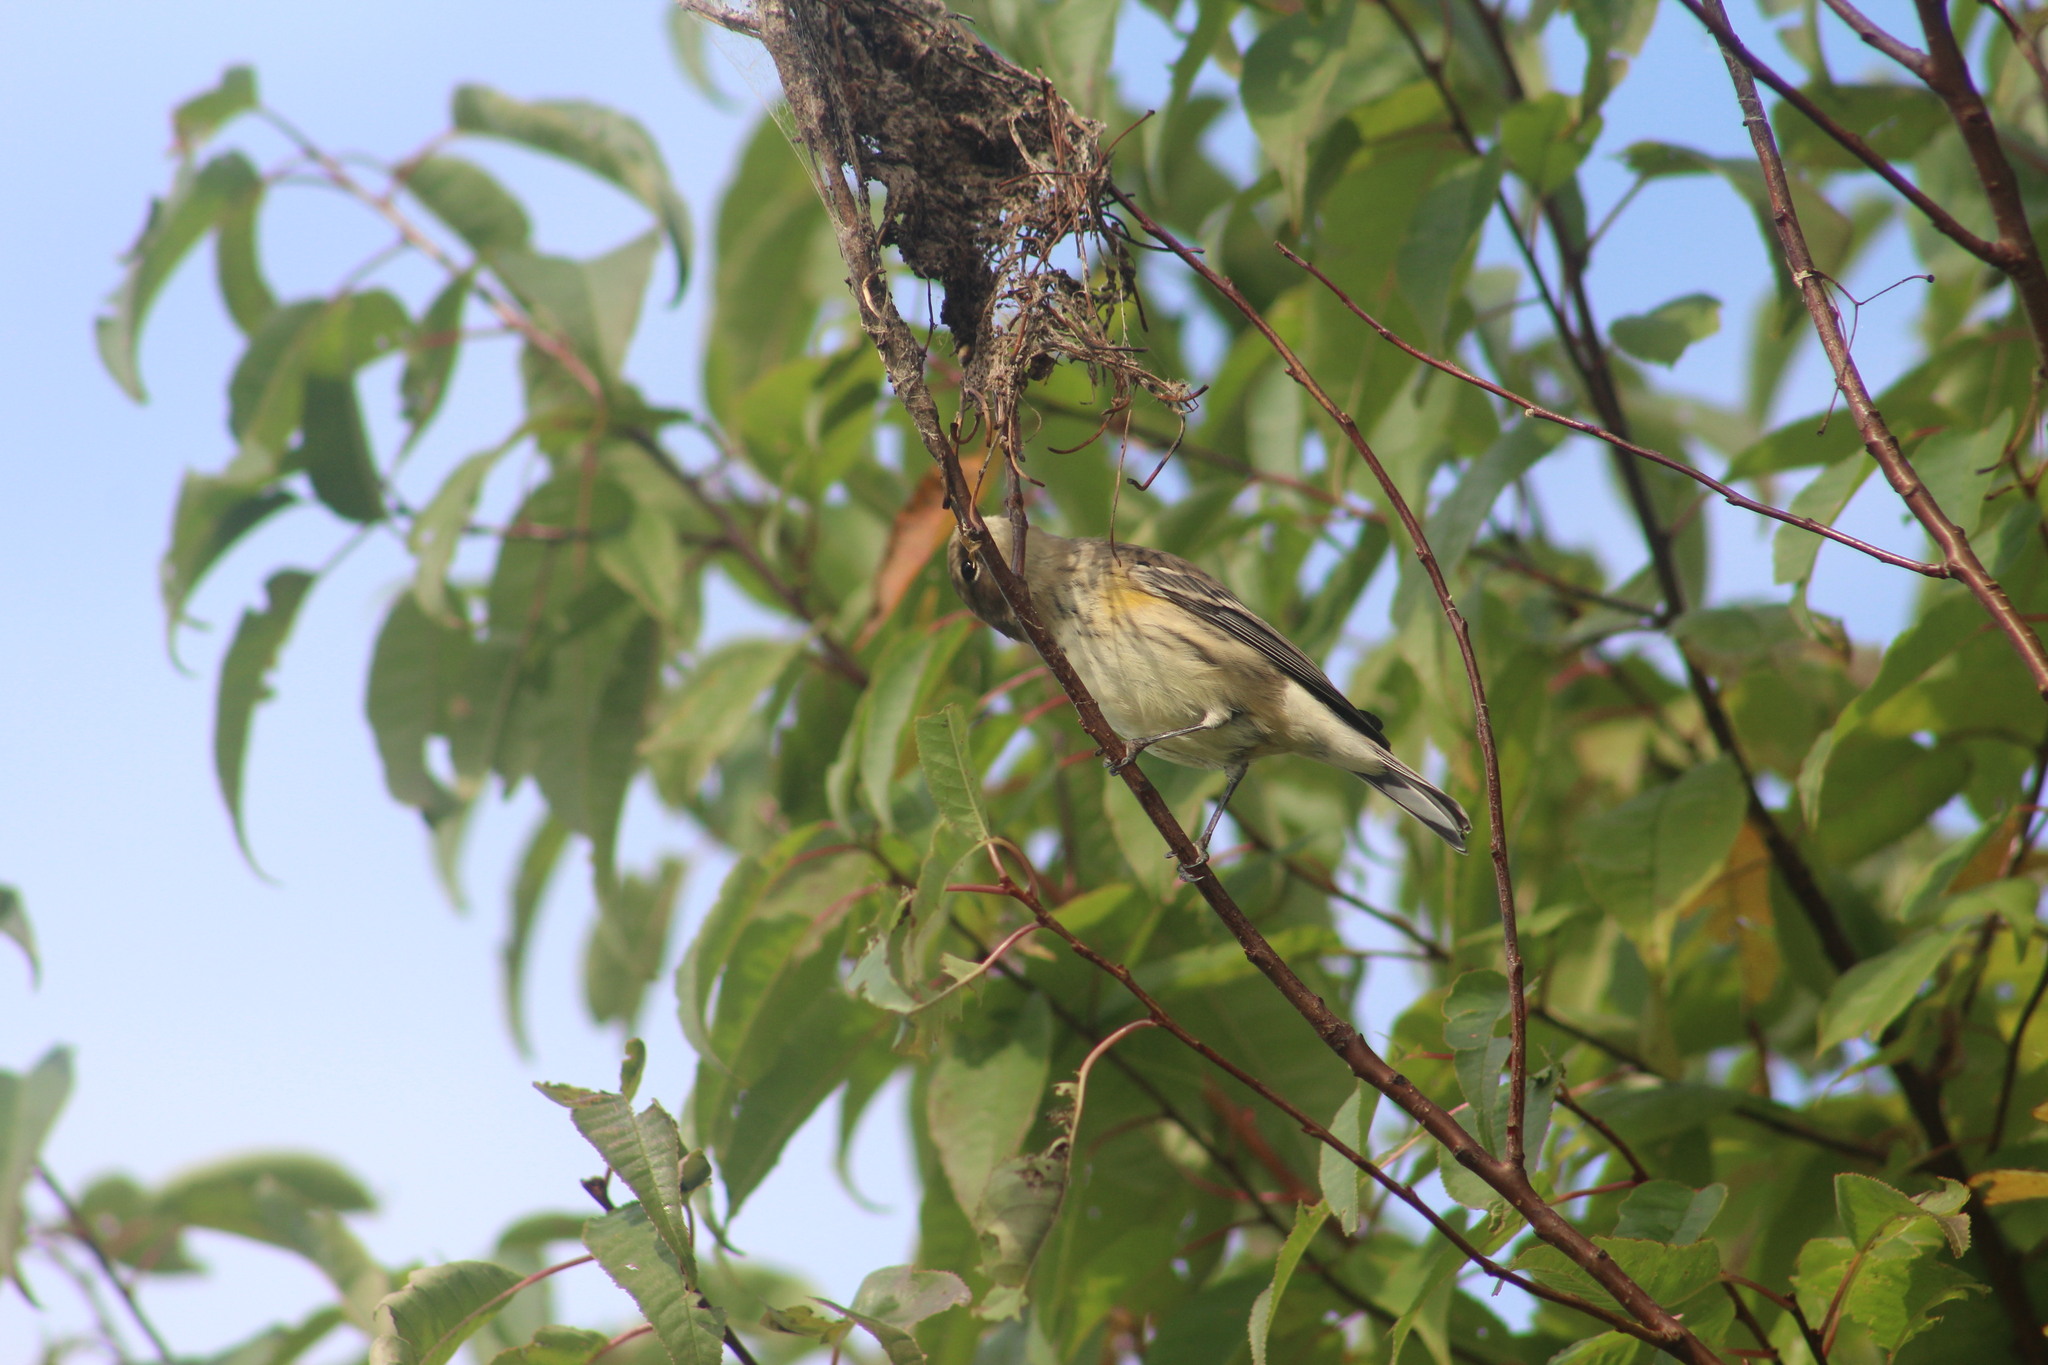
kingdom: Animalia
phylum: Chordata
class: Aves
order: Passeriformes
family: Parulidae
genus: Setophaga
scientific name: Setophaga coronata
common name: Myrtle warbler
